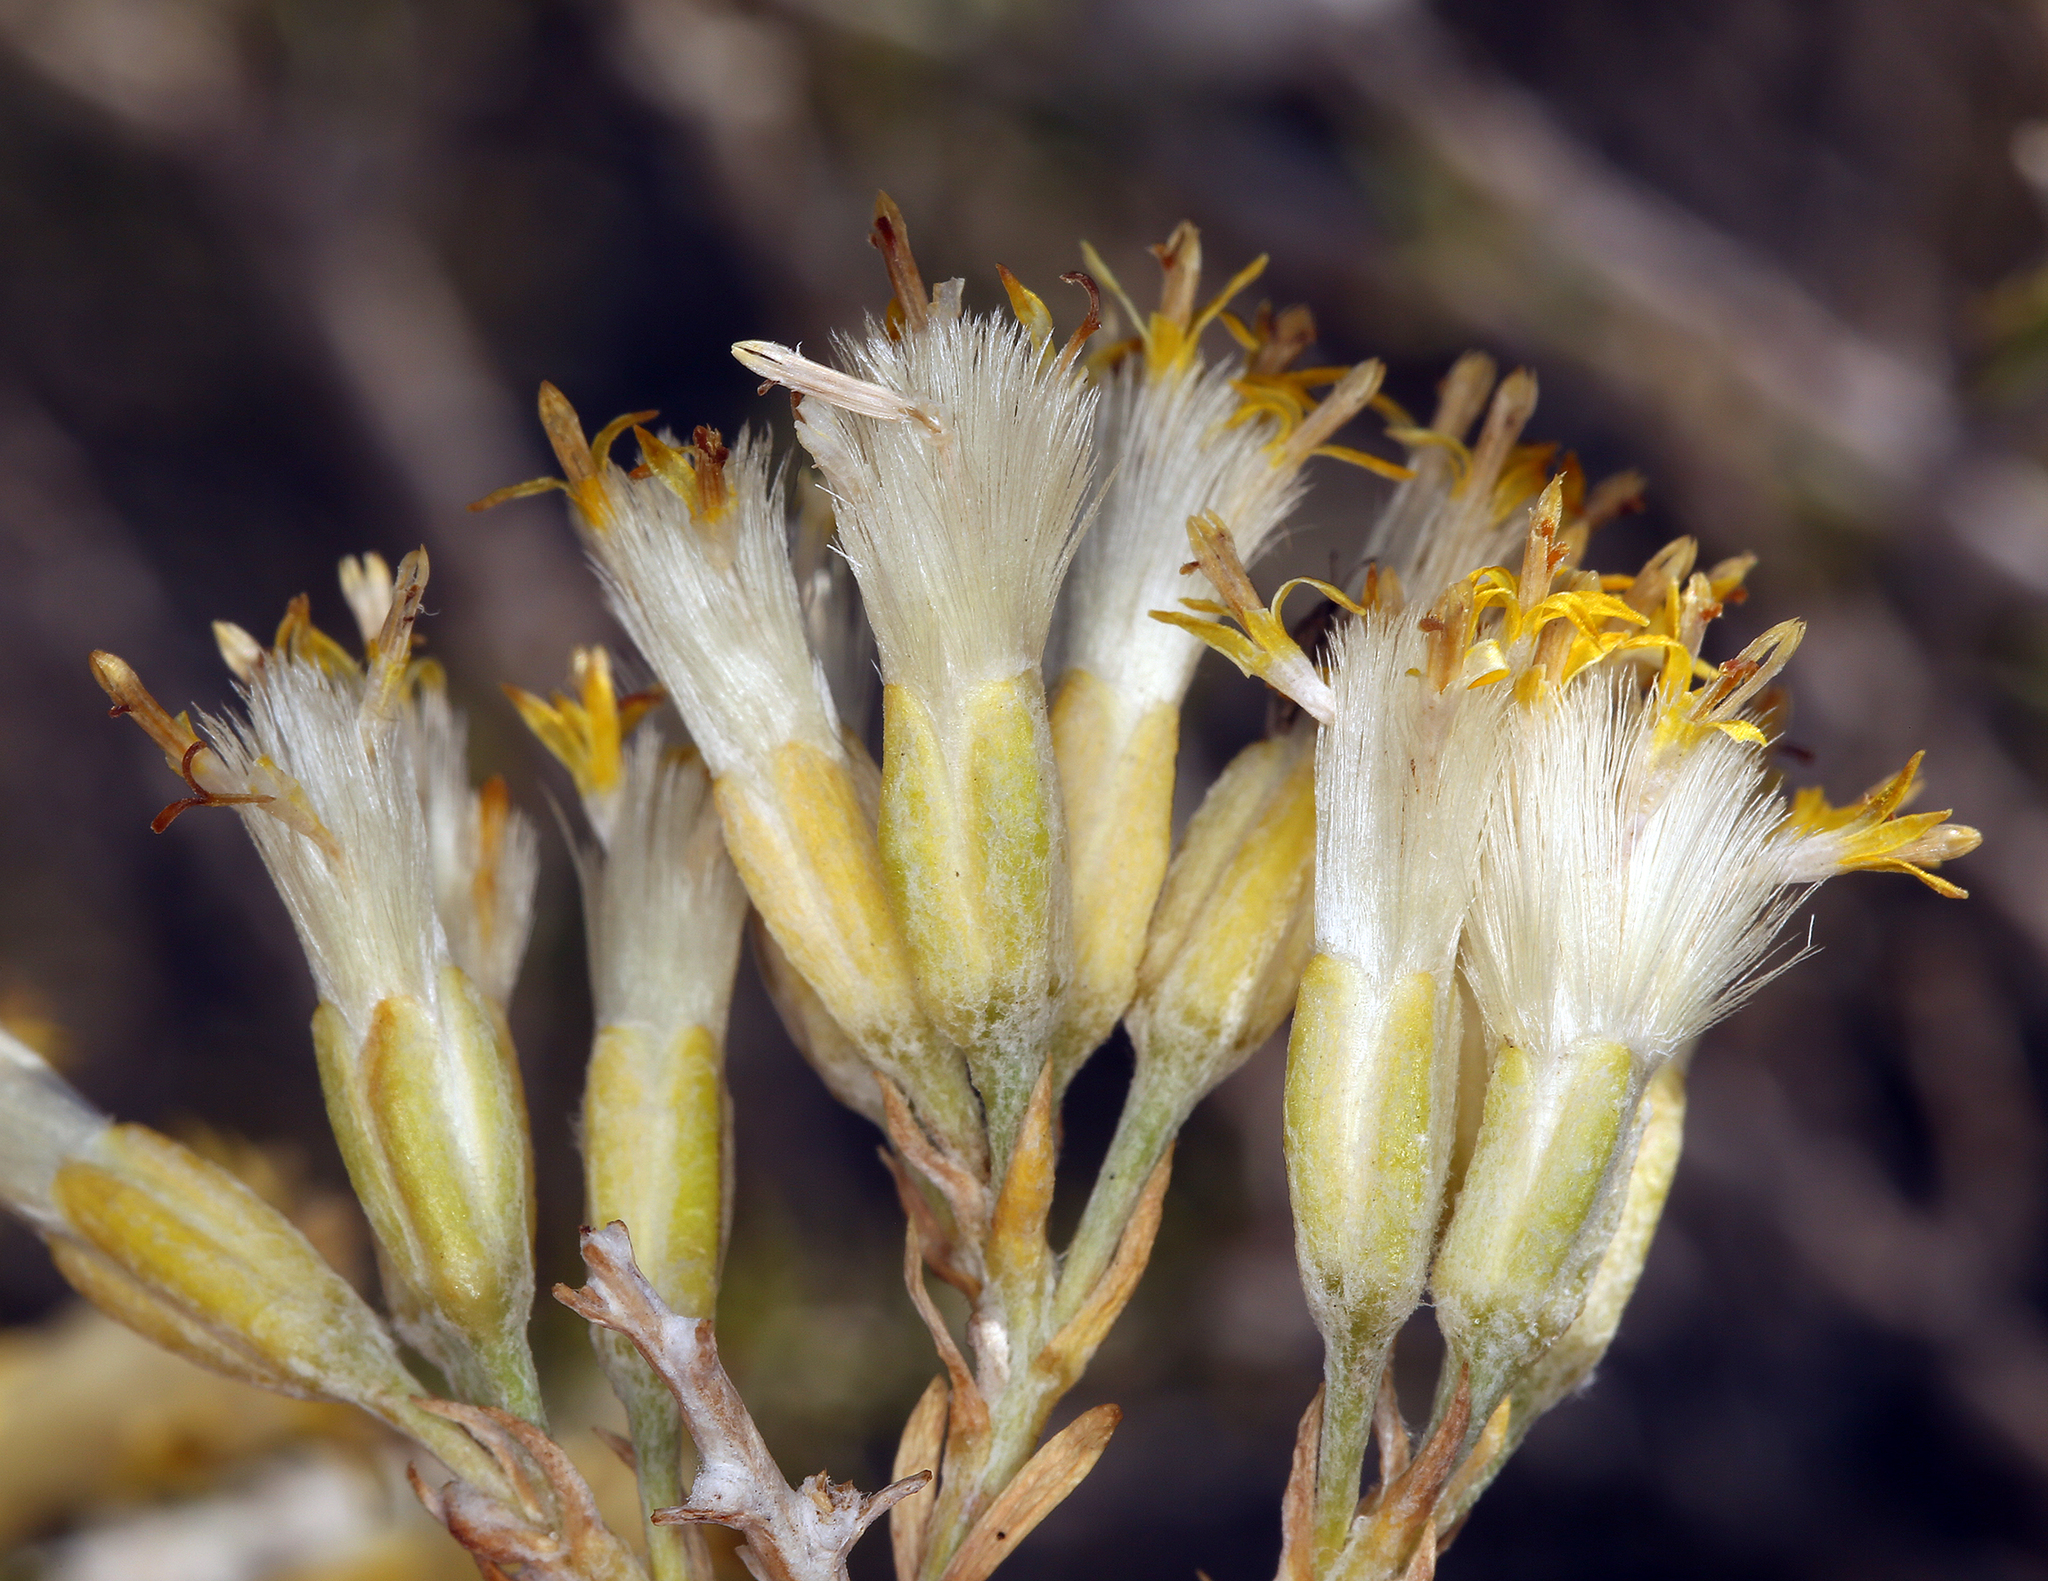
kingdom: Plantae
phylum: Tracheophyta
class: Magnoliopsida
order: Asterales
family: Asteraceae
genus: Tetradymia
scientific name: Tetradymia glabrata
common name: Smooth tetradymia
